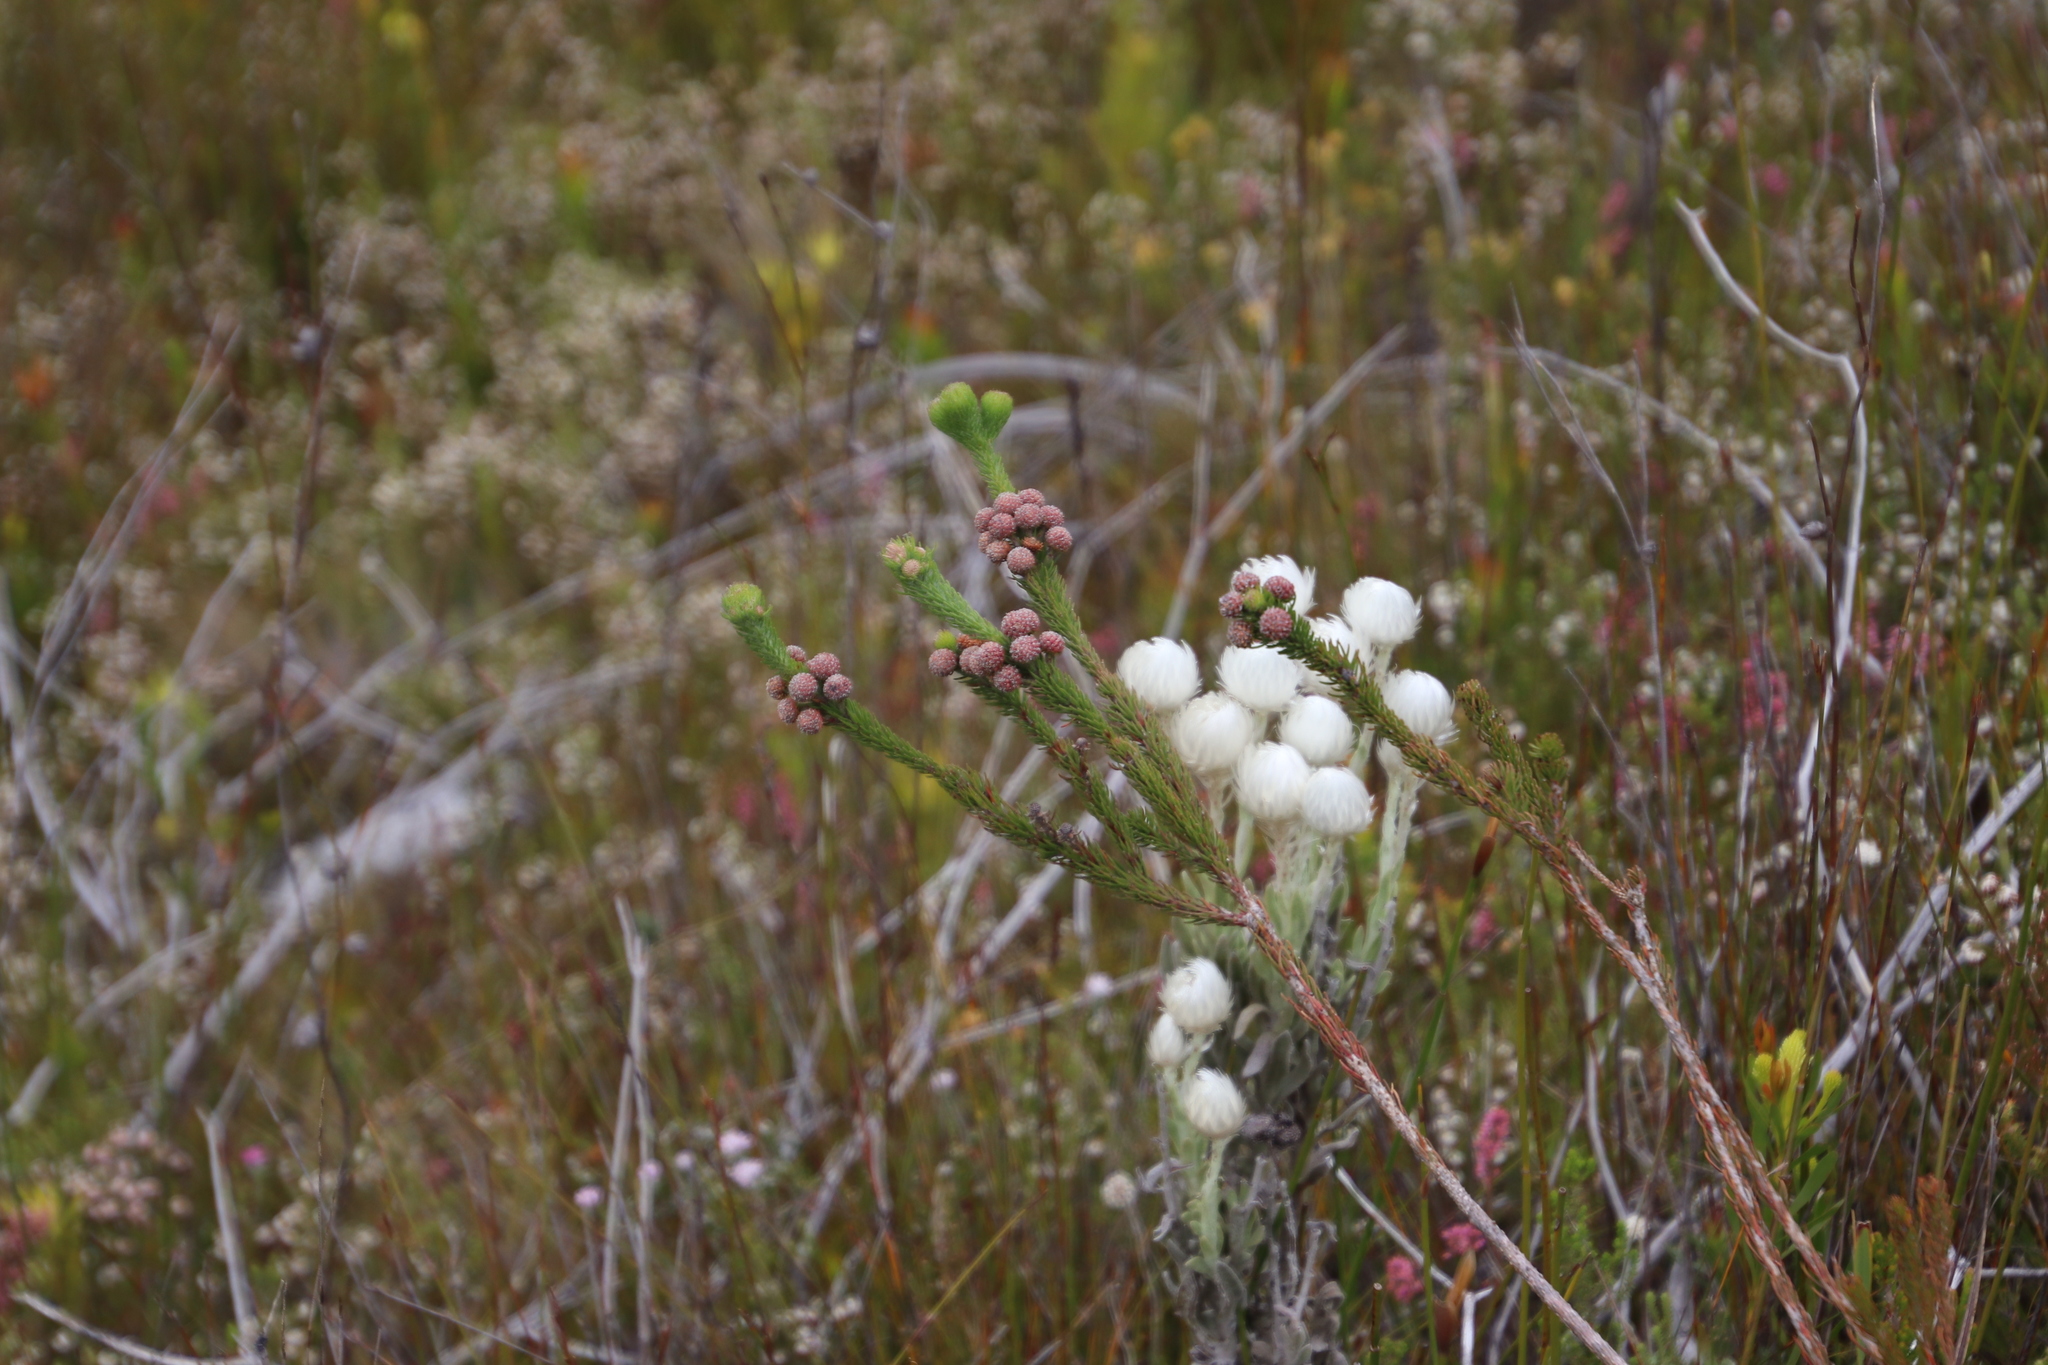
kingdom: Plantae
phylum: Tracheophyta
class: Magnoliopsida
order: Bruniales
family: Bruniaceae
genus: Berzelia
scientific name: Berzelia incurva
